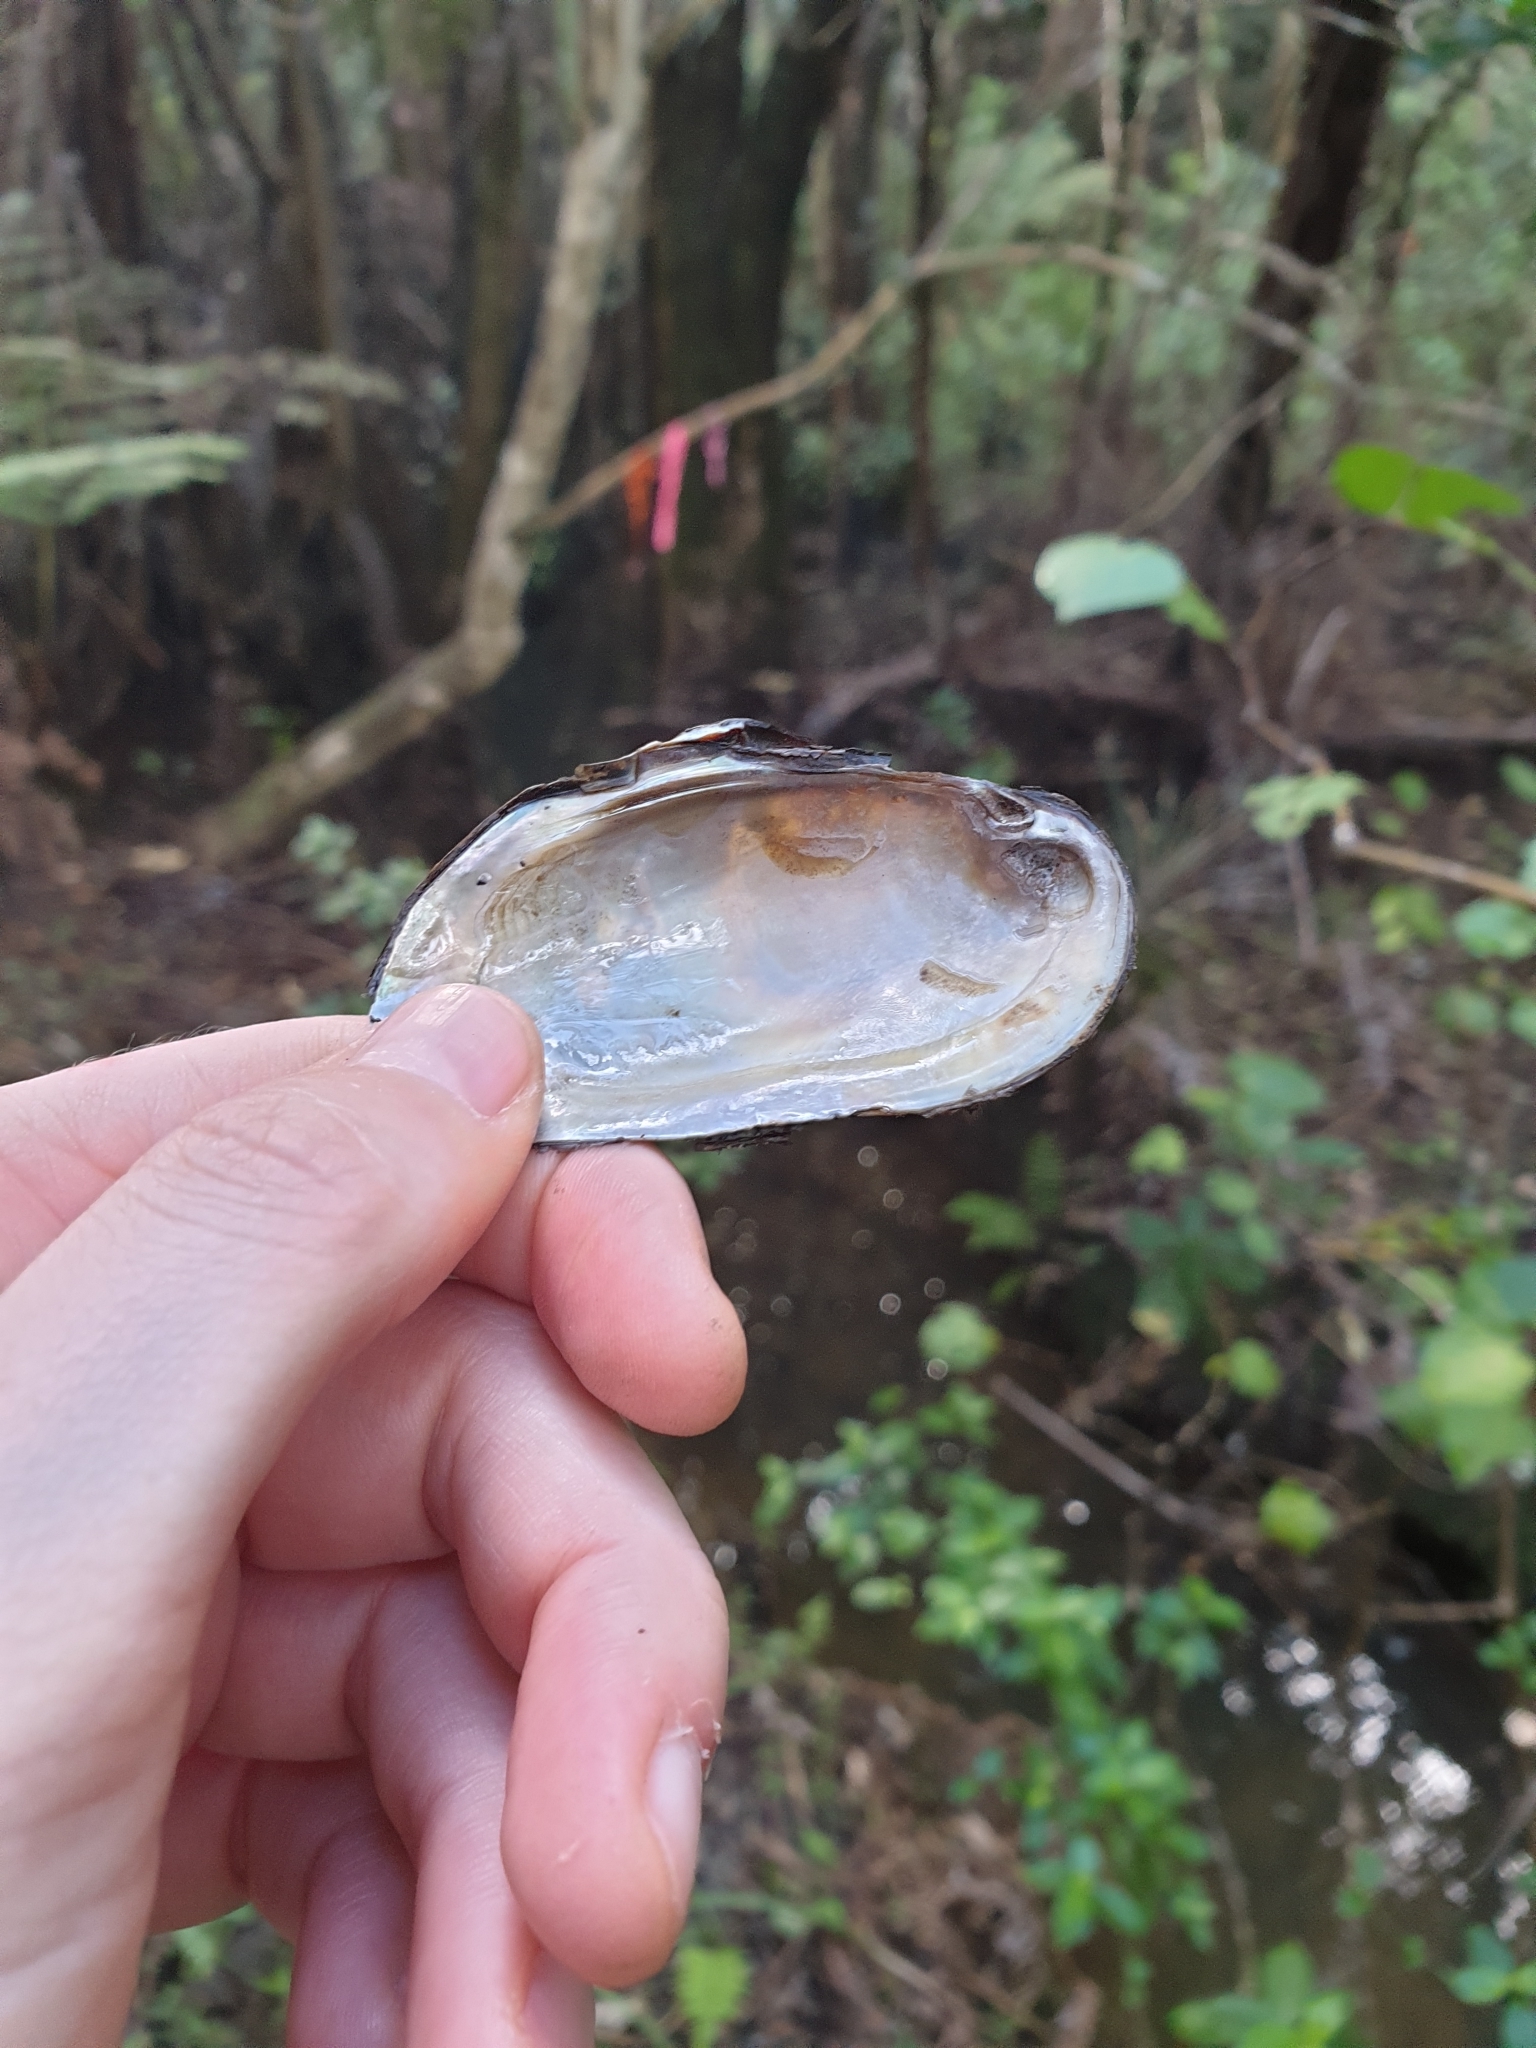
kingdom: Animalia
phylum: Mollusca
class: Bivalvia
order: Unionida
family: Hyriidae
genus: Echyridella
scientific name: Echyridella menziesii
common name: New zealand freshwater mussel
